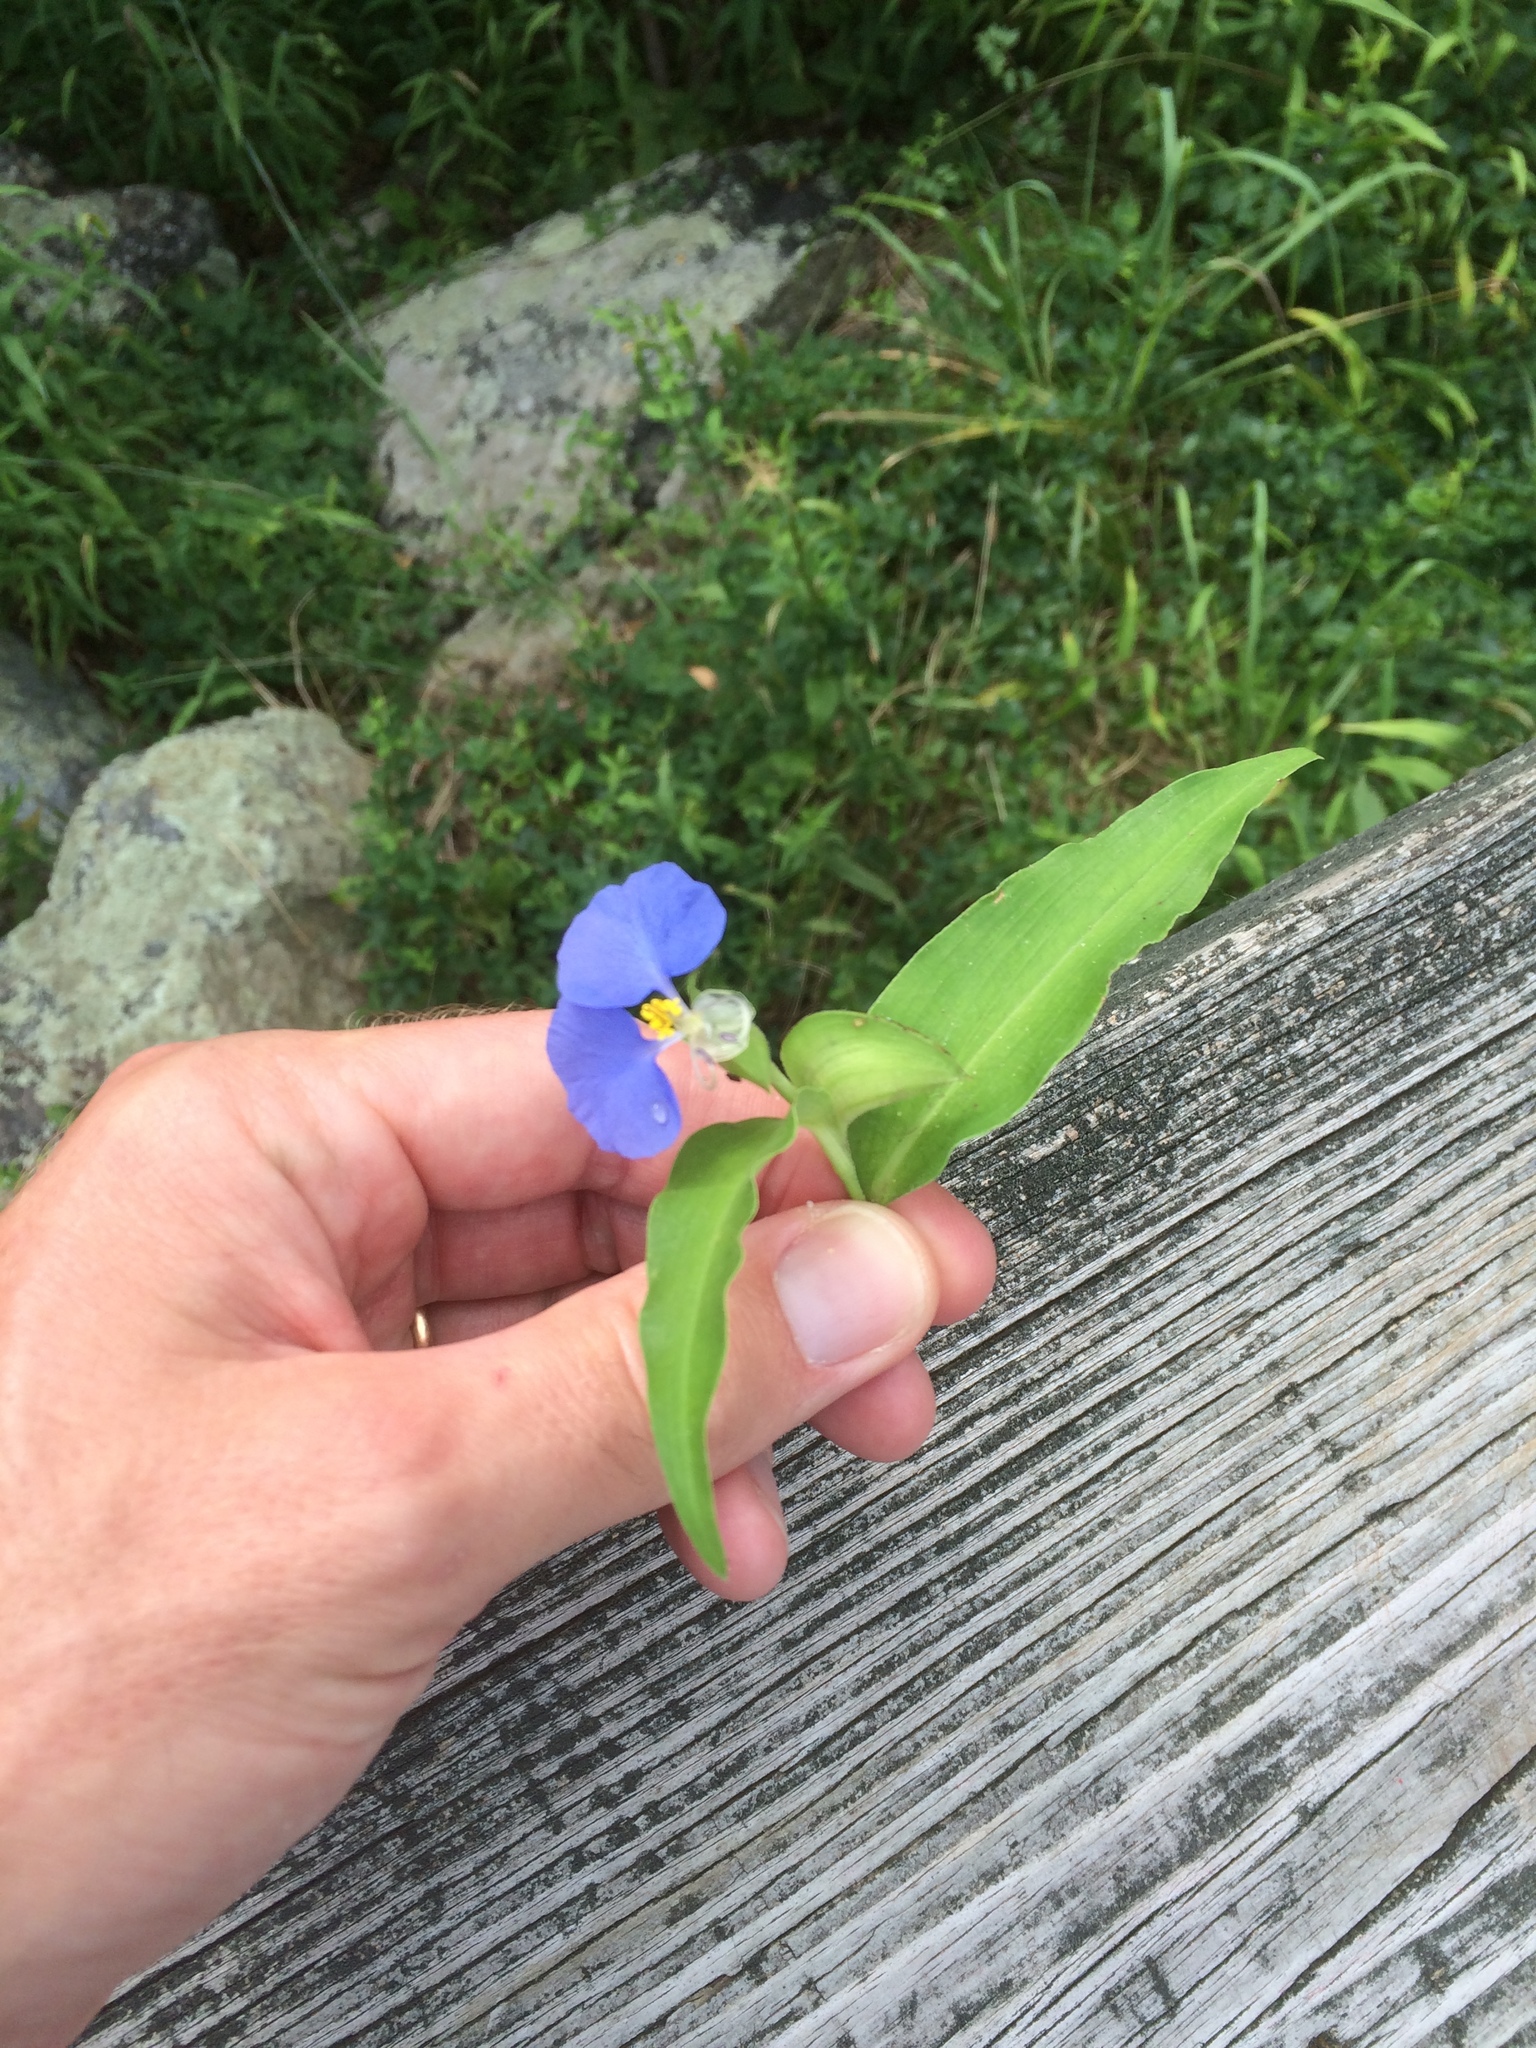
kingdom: Plantae
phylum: Tracheophyta
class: Liliopsida
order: Commelinales
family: Commelinaceae
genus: Commelina
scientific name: Commelina communis
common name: Asiatic dayflower
